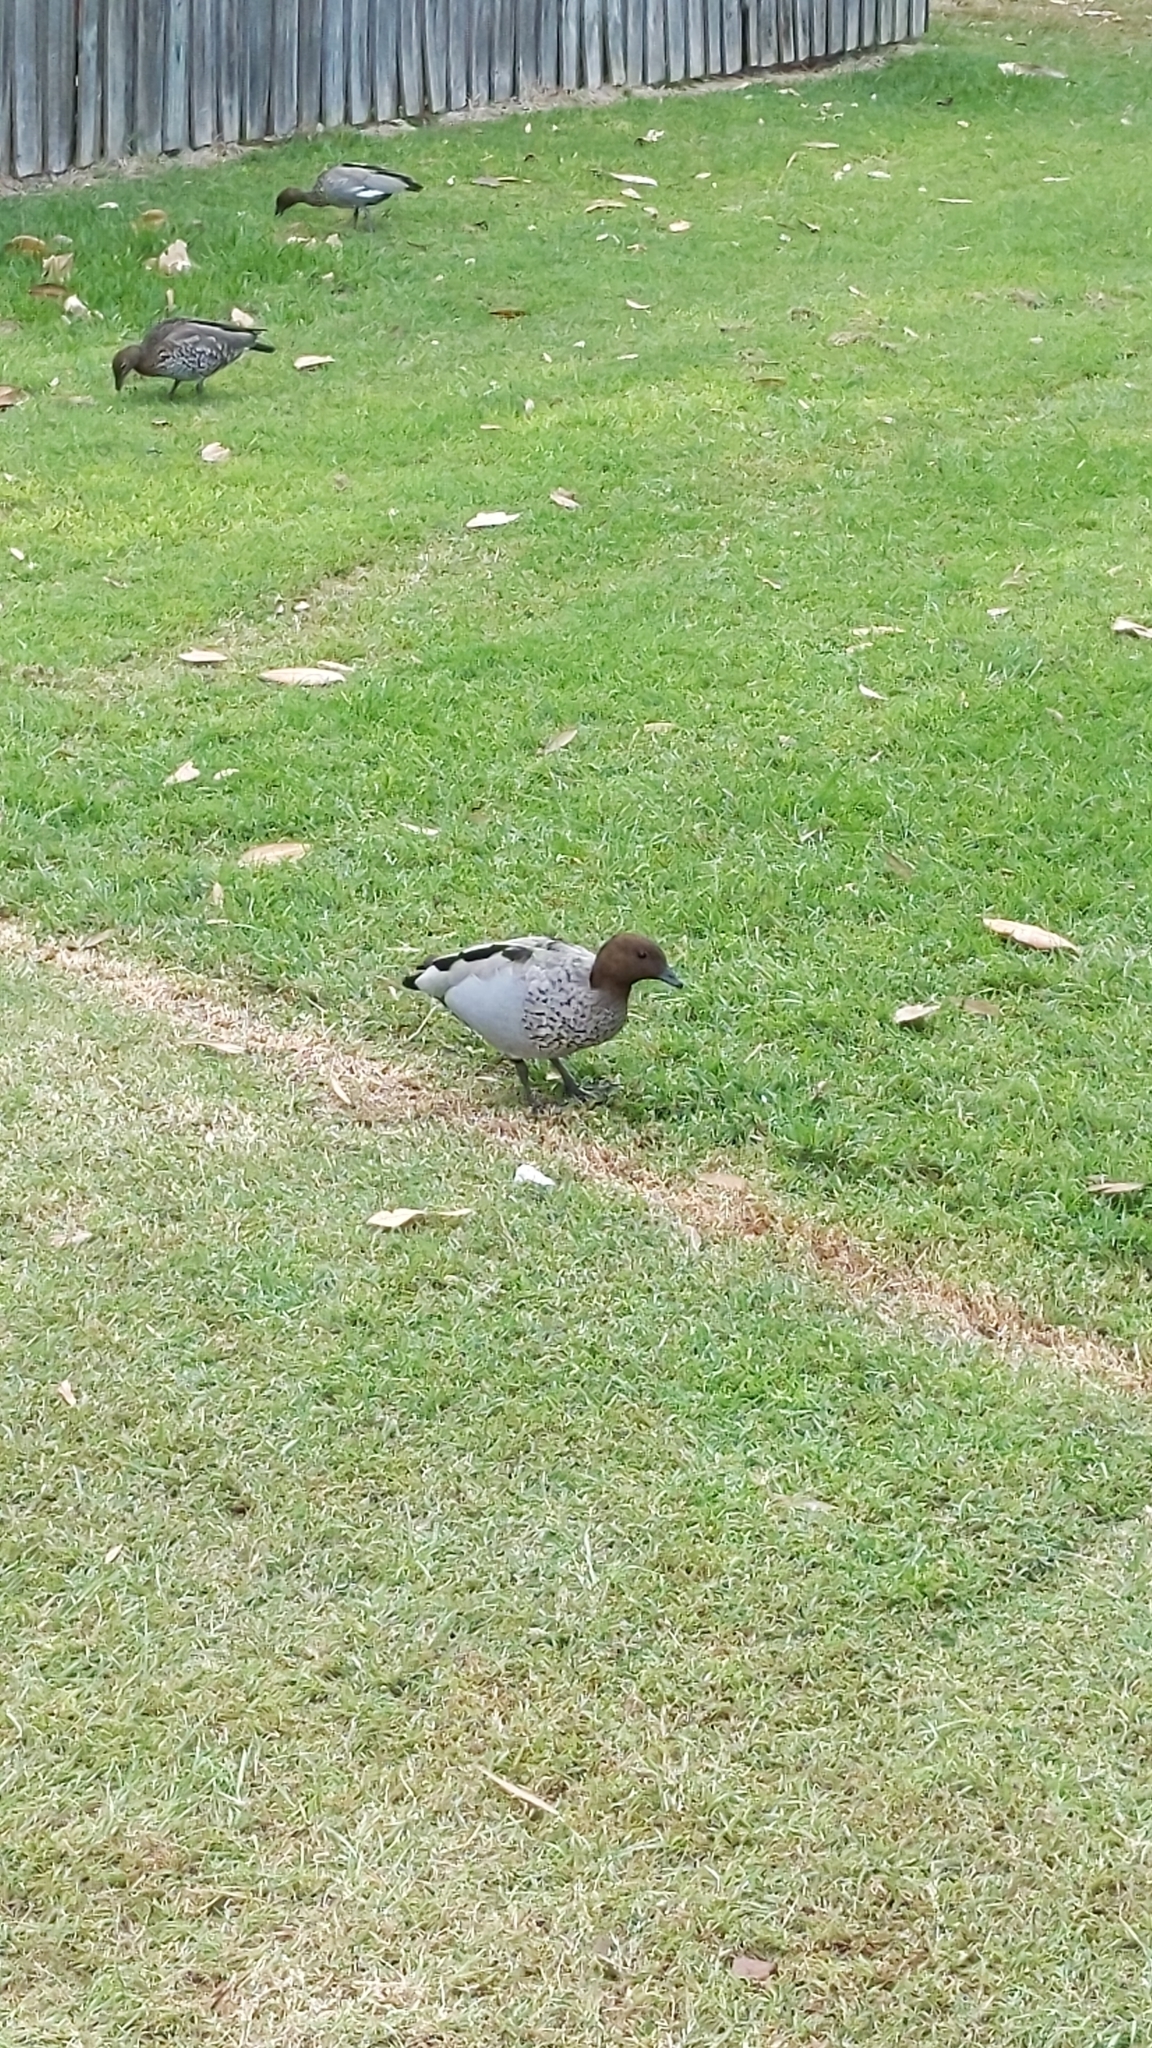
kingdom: Animalia
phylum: Chordata
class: Aves
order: Anseriformes
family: Anatidae
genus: Chenonetta
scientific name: Chenonetta jubata
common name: Maned duck
